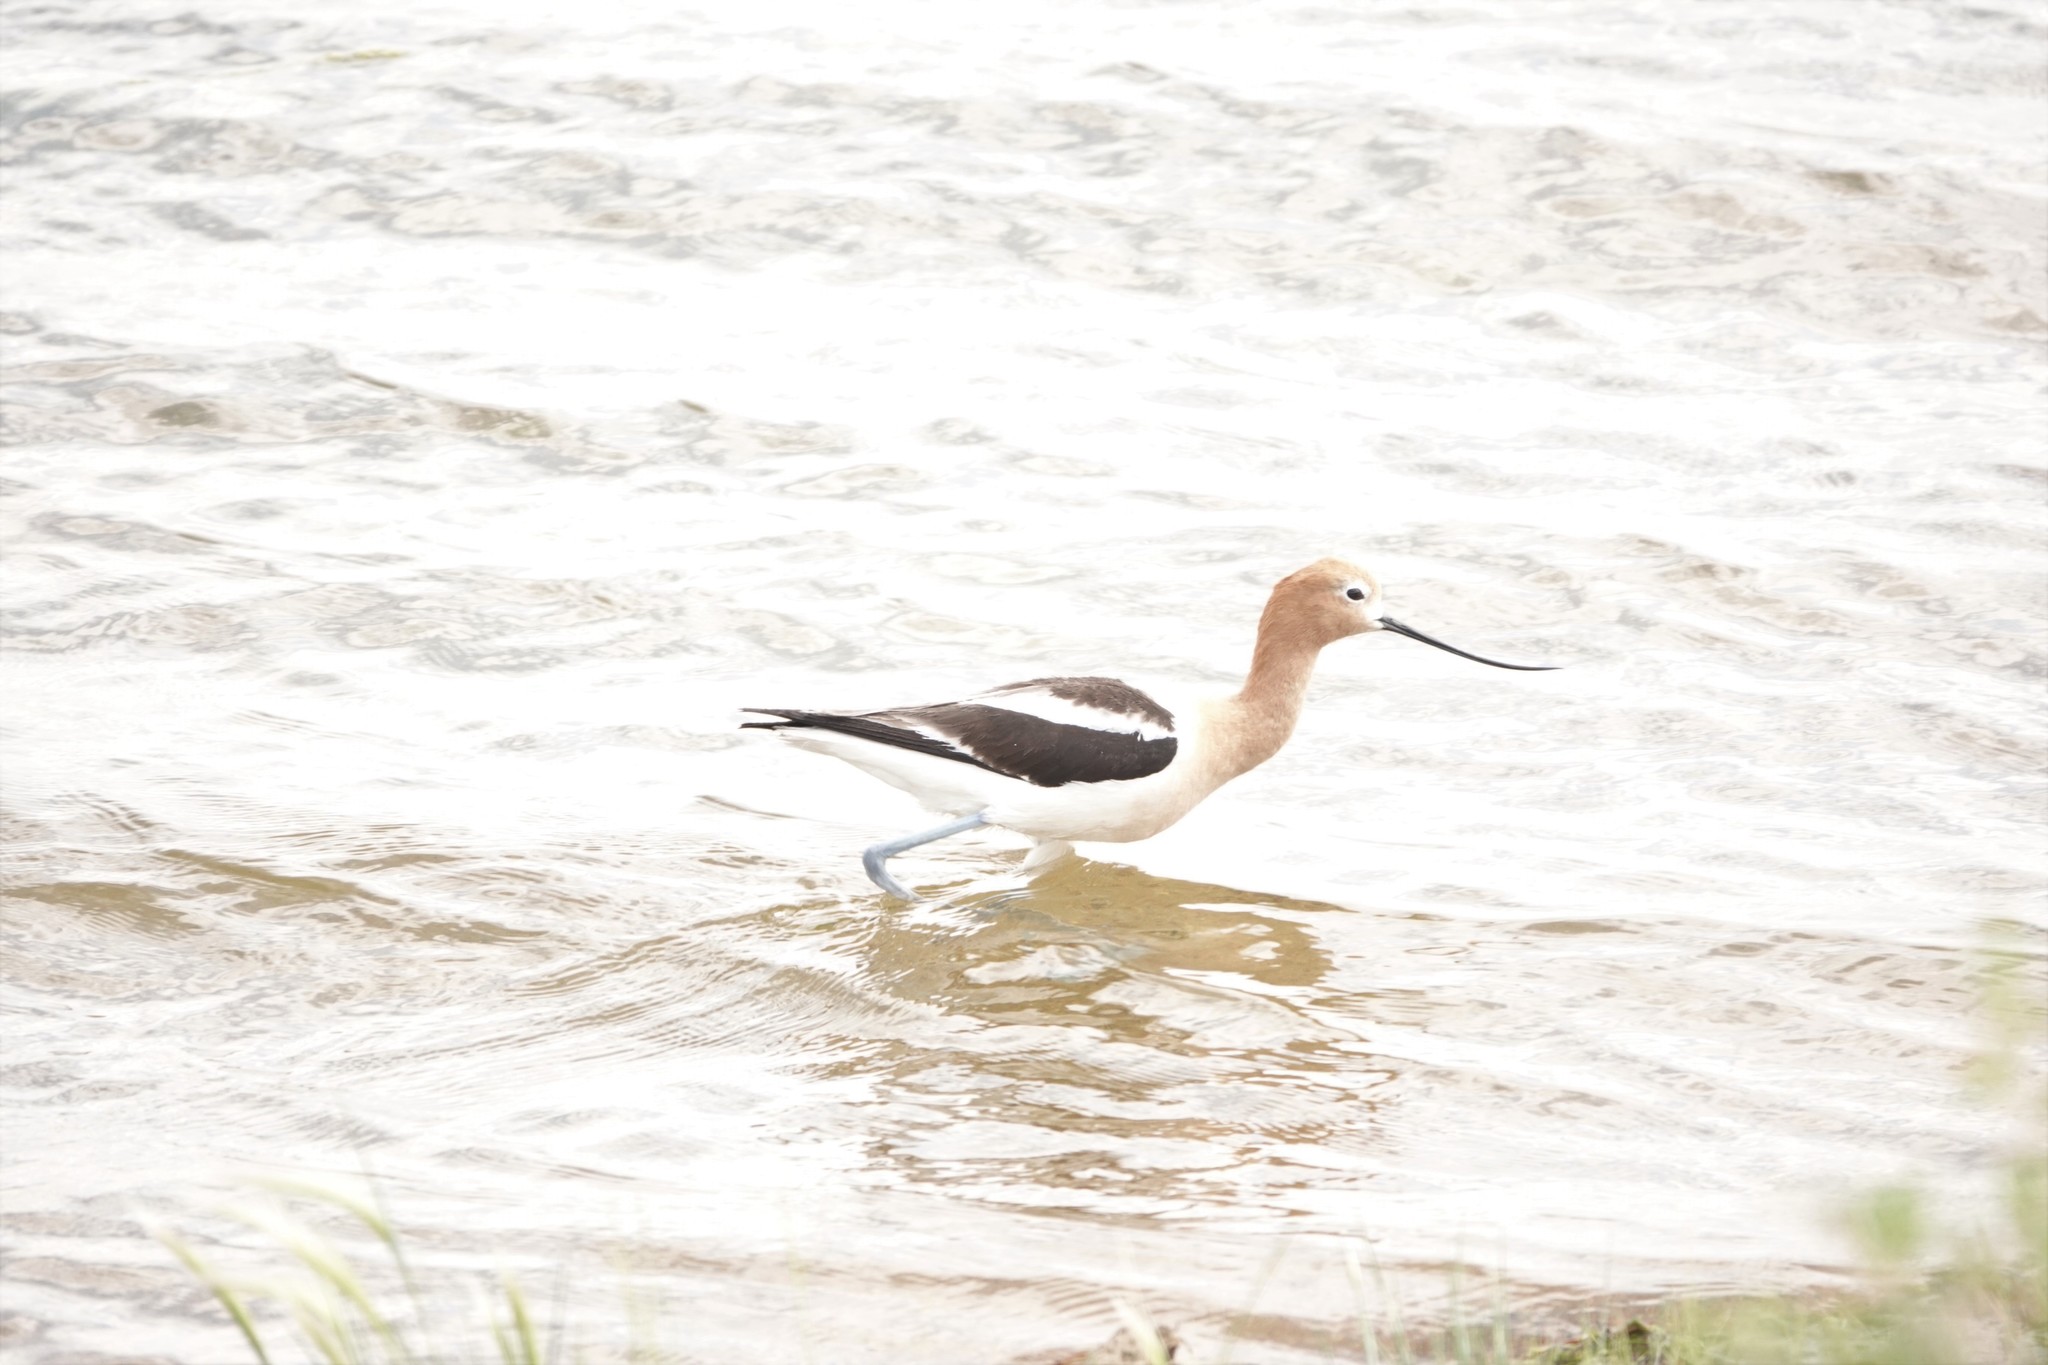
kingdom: Animalia
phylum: Chordata
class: Aves
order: Charadriiformes
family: Recurvirostridae
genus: Recurvirostra
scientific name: Recurvirostra americana
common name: American avocet
